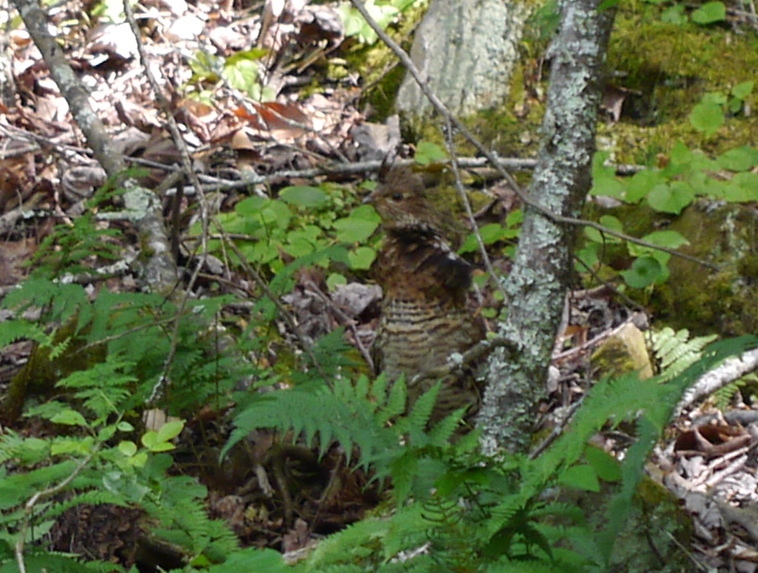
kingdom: Animalia
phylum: Chordata
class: Aves
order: Galliformes
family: Phasianidae
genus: Bonasa
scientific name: Bonasa umbellus
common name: Ruffed grouse
